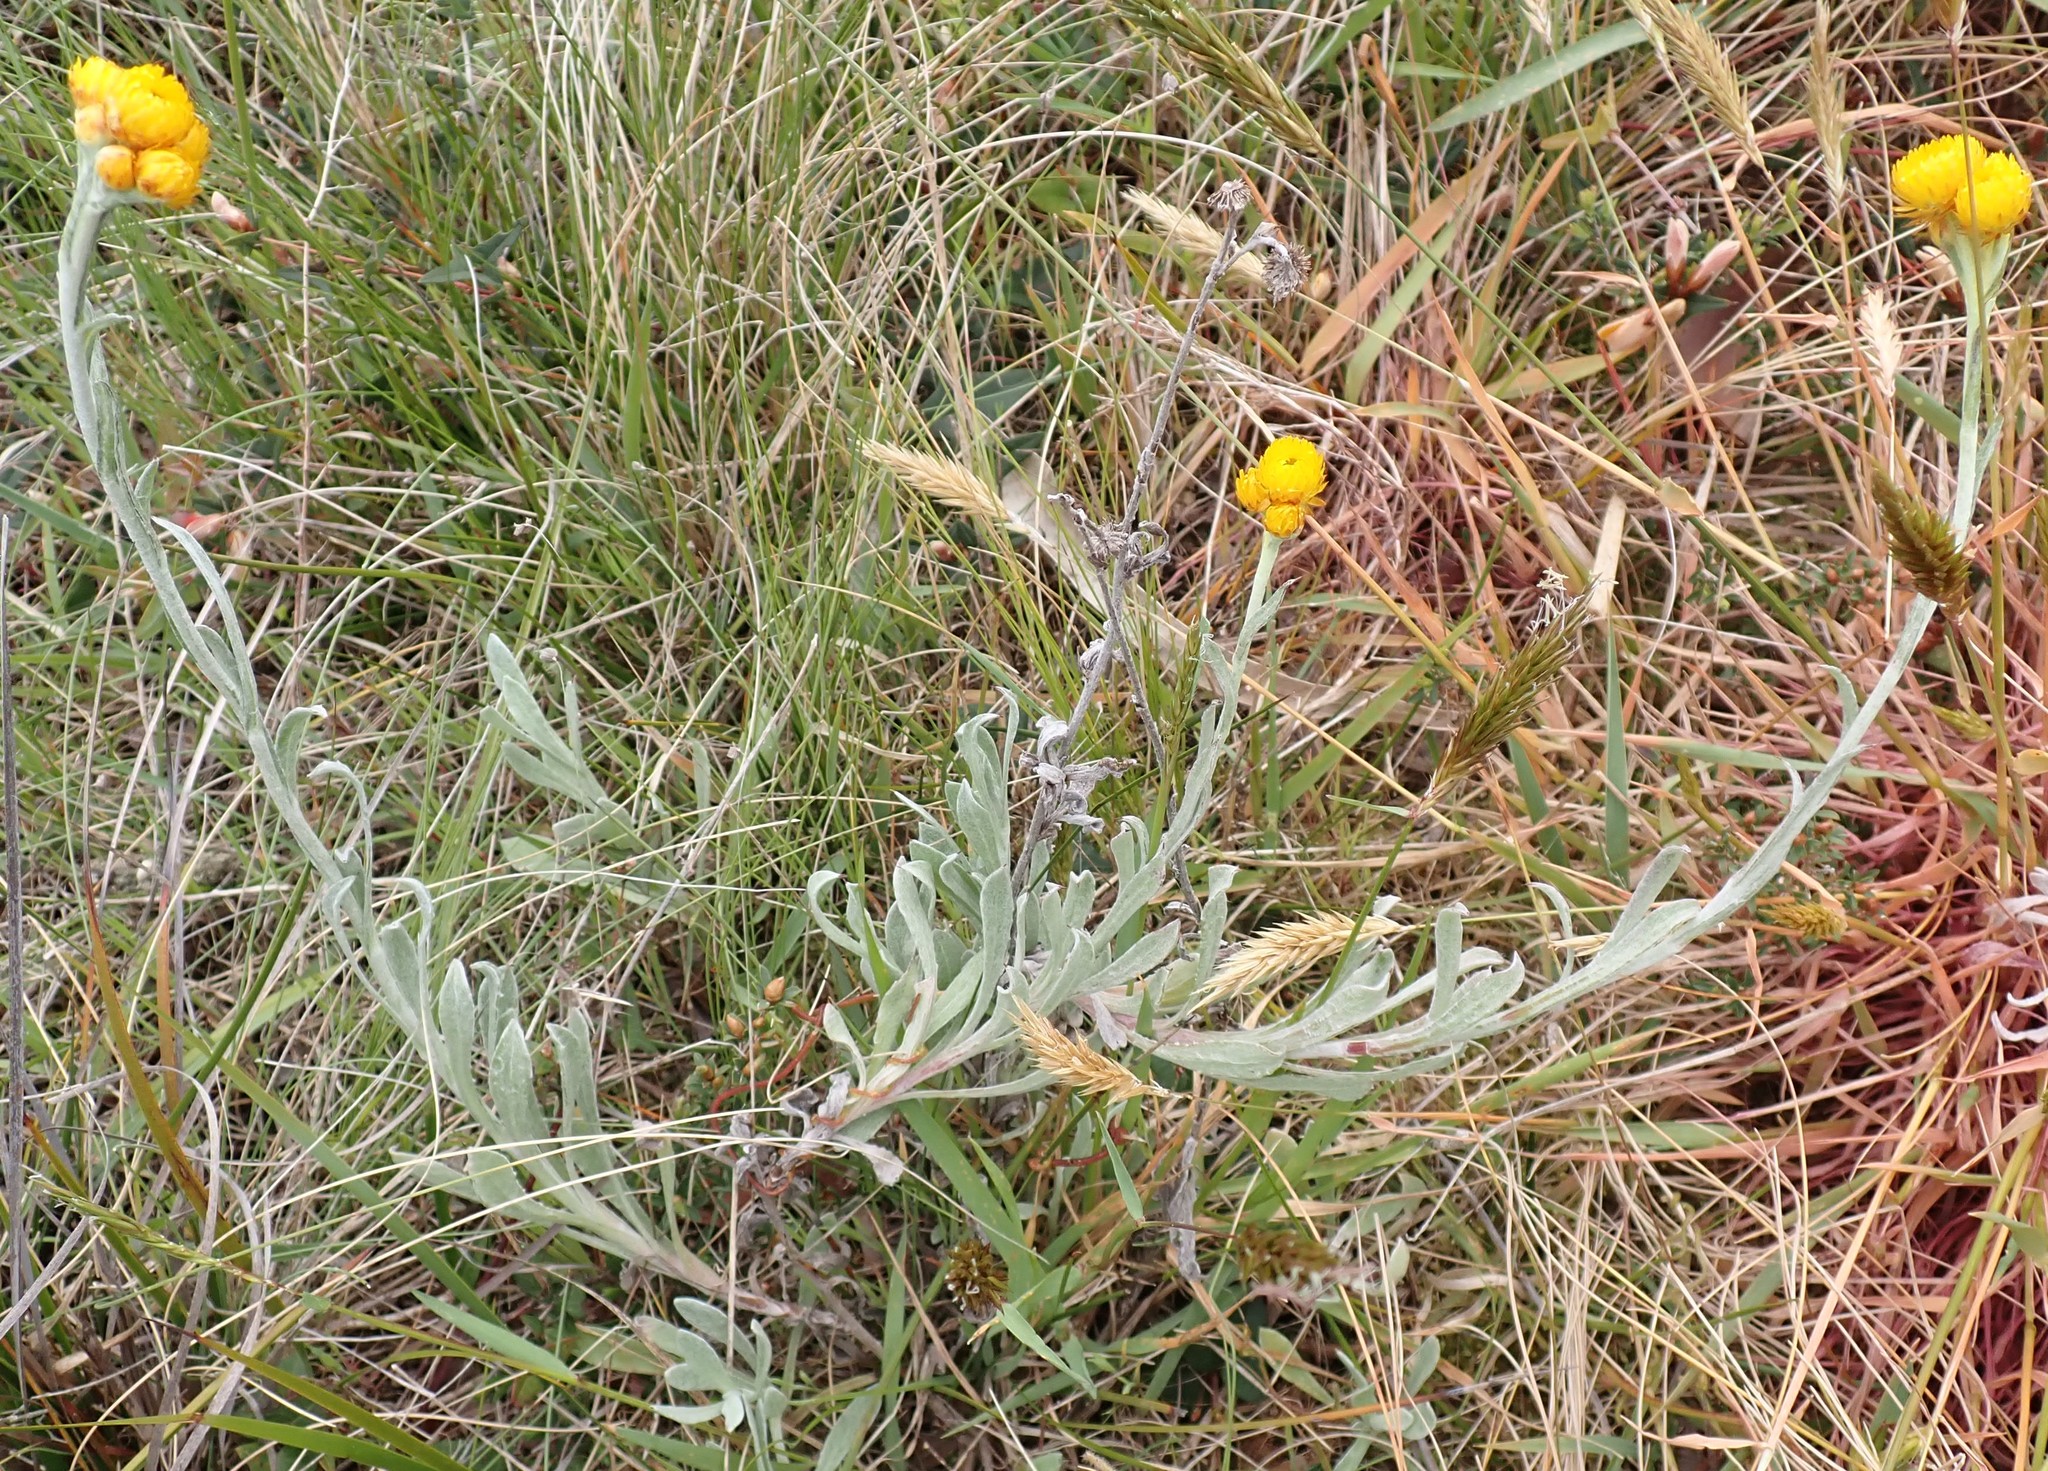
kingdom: Plantae
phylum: Tracheophyta
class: Magnoliopsida
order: Asterales
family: Asteraceae
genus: Chrysocephalum
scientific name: Chrysocephalum semipapposum
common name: Clustered everlasting
